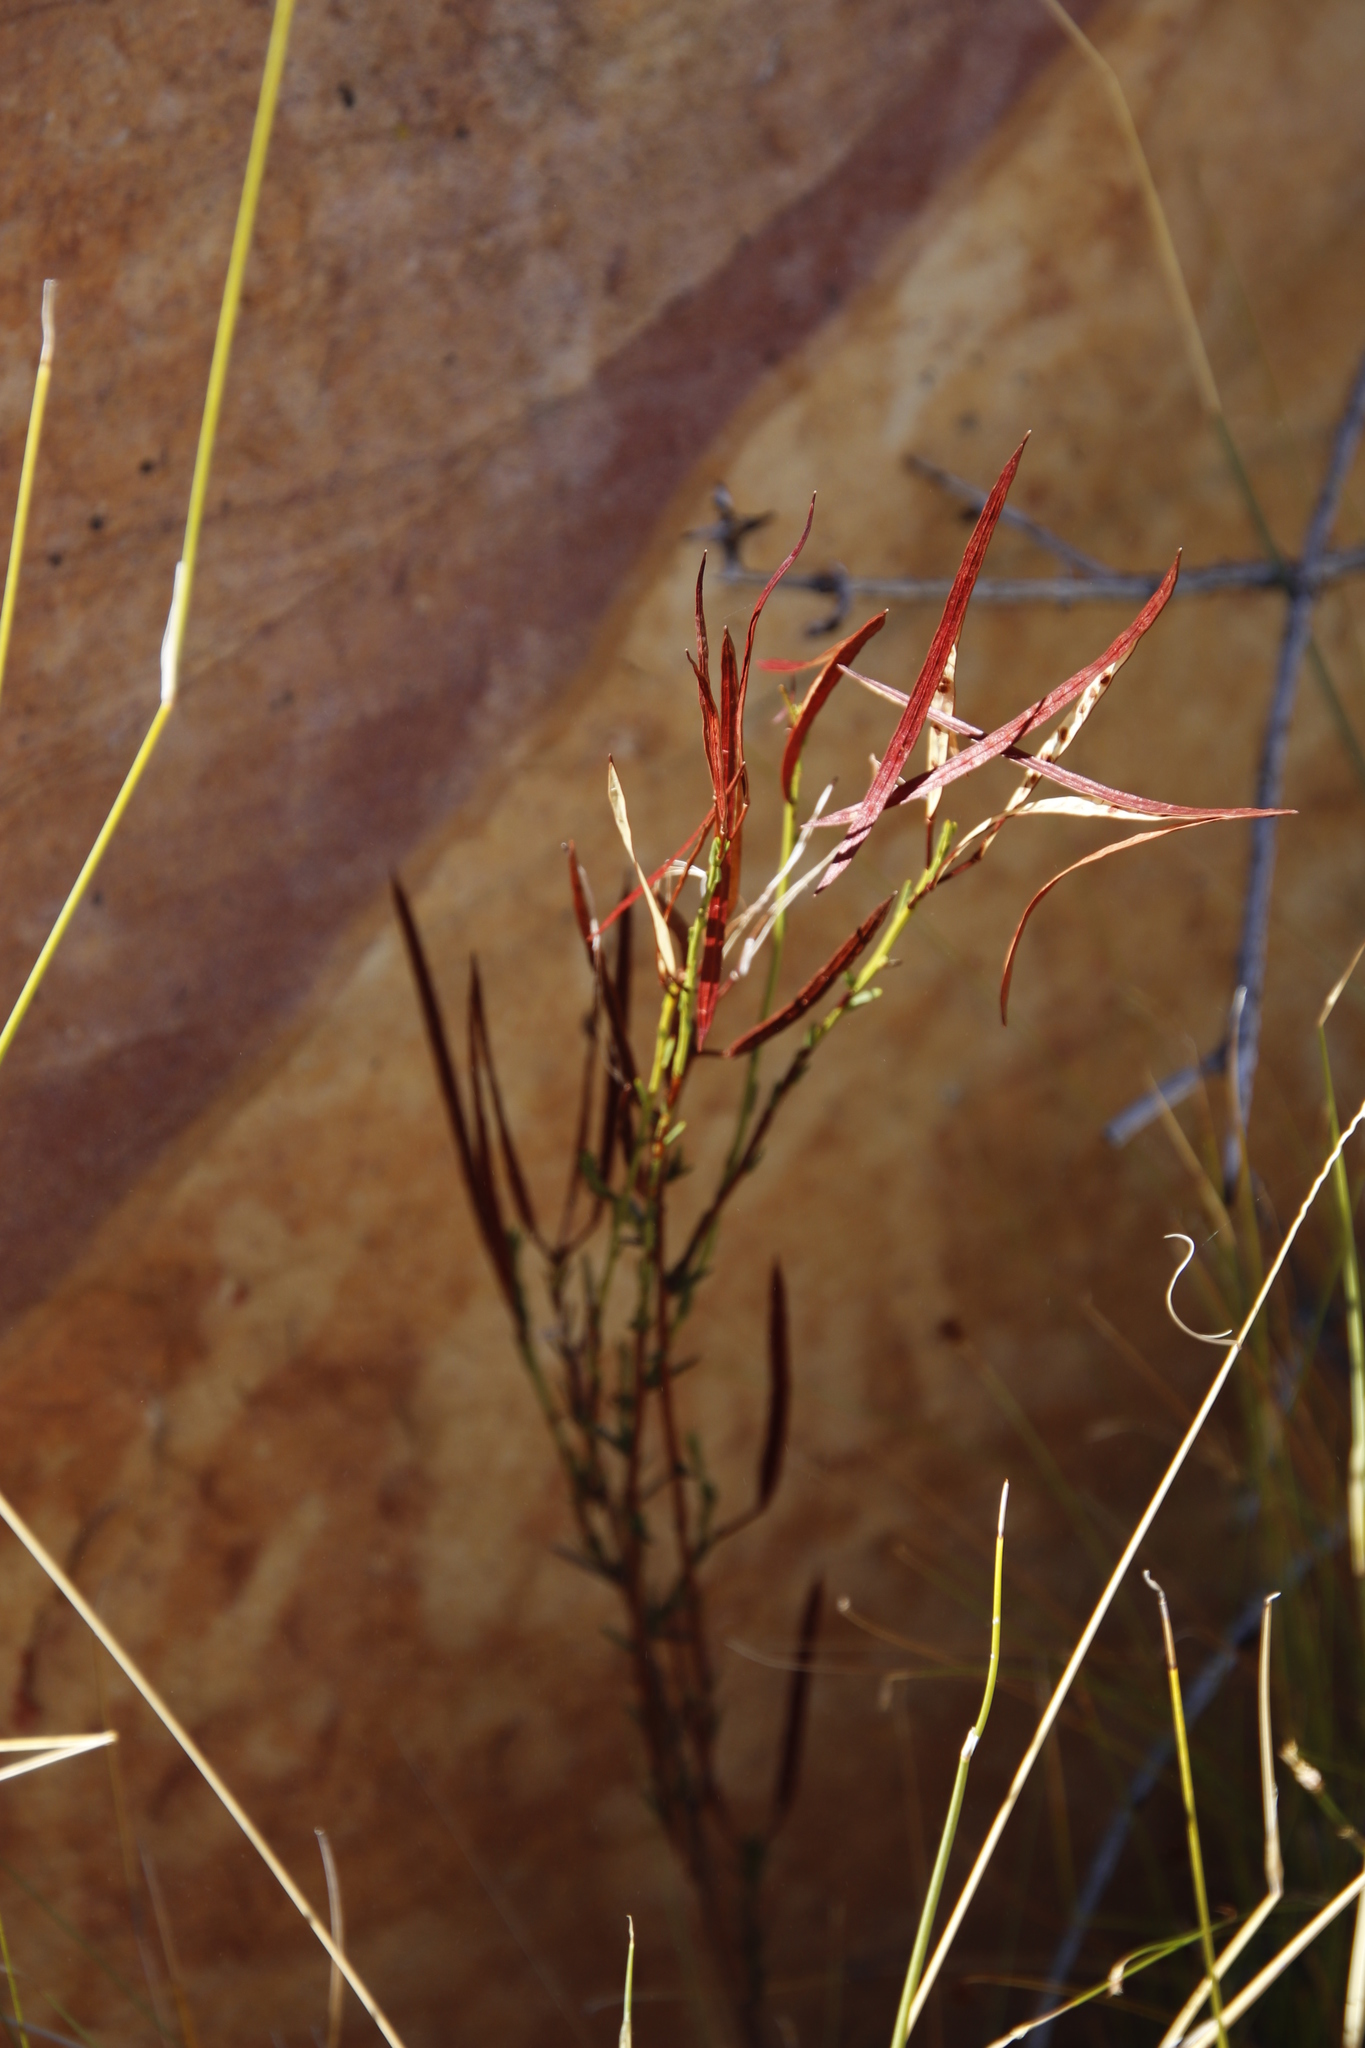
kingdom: Plantae
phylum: Tracheophyta
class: Magnoliopsida
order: Brassicales
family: Brassicaceae
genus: Heliophila
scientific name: Heliophila scoparia
